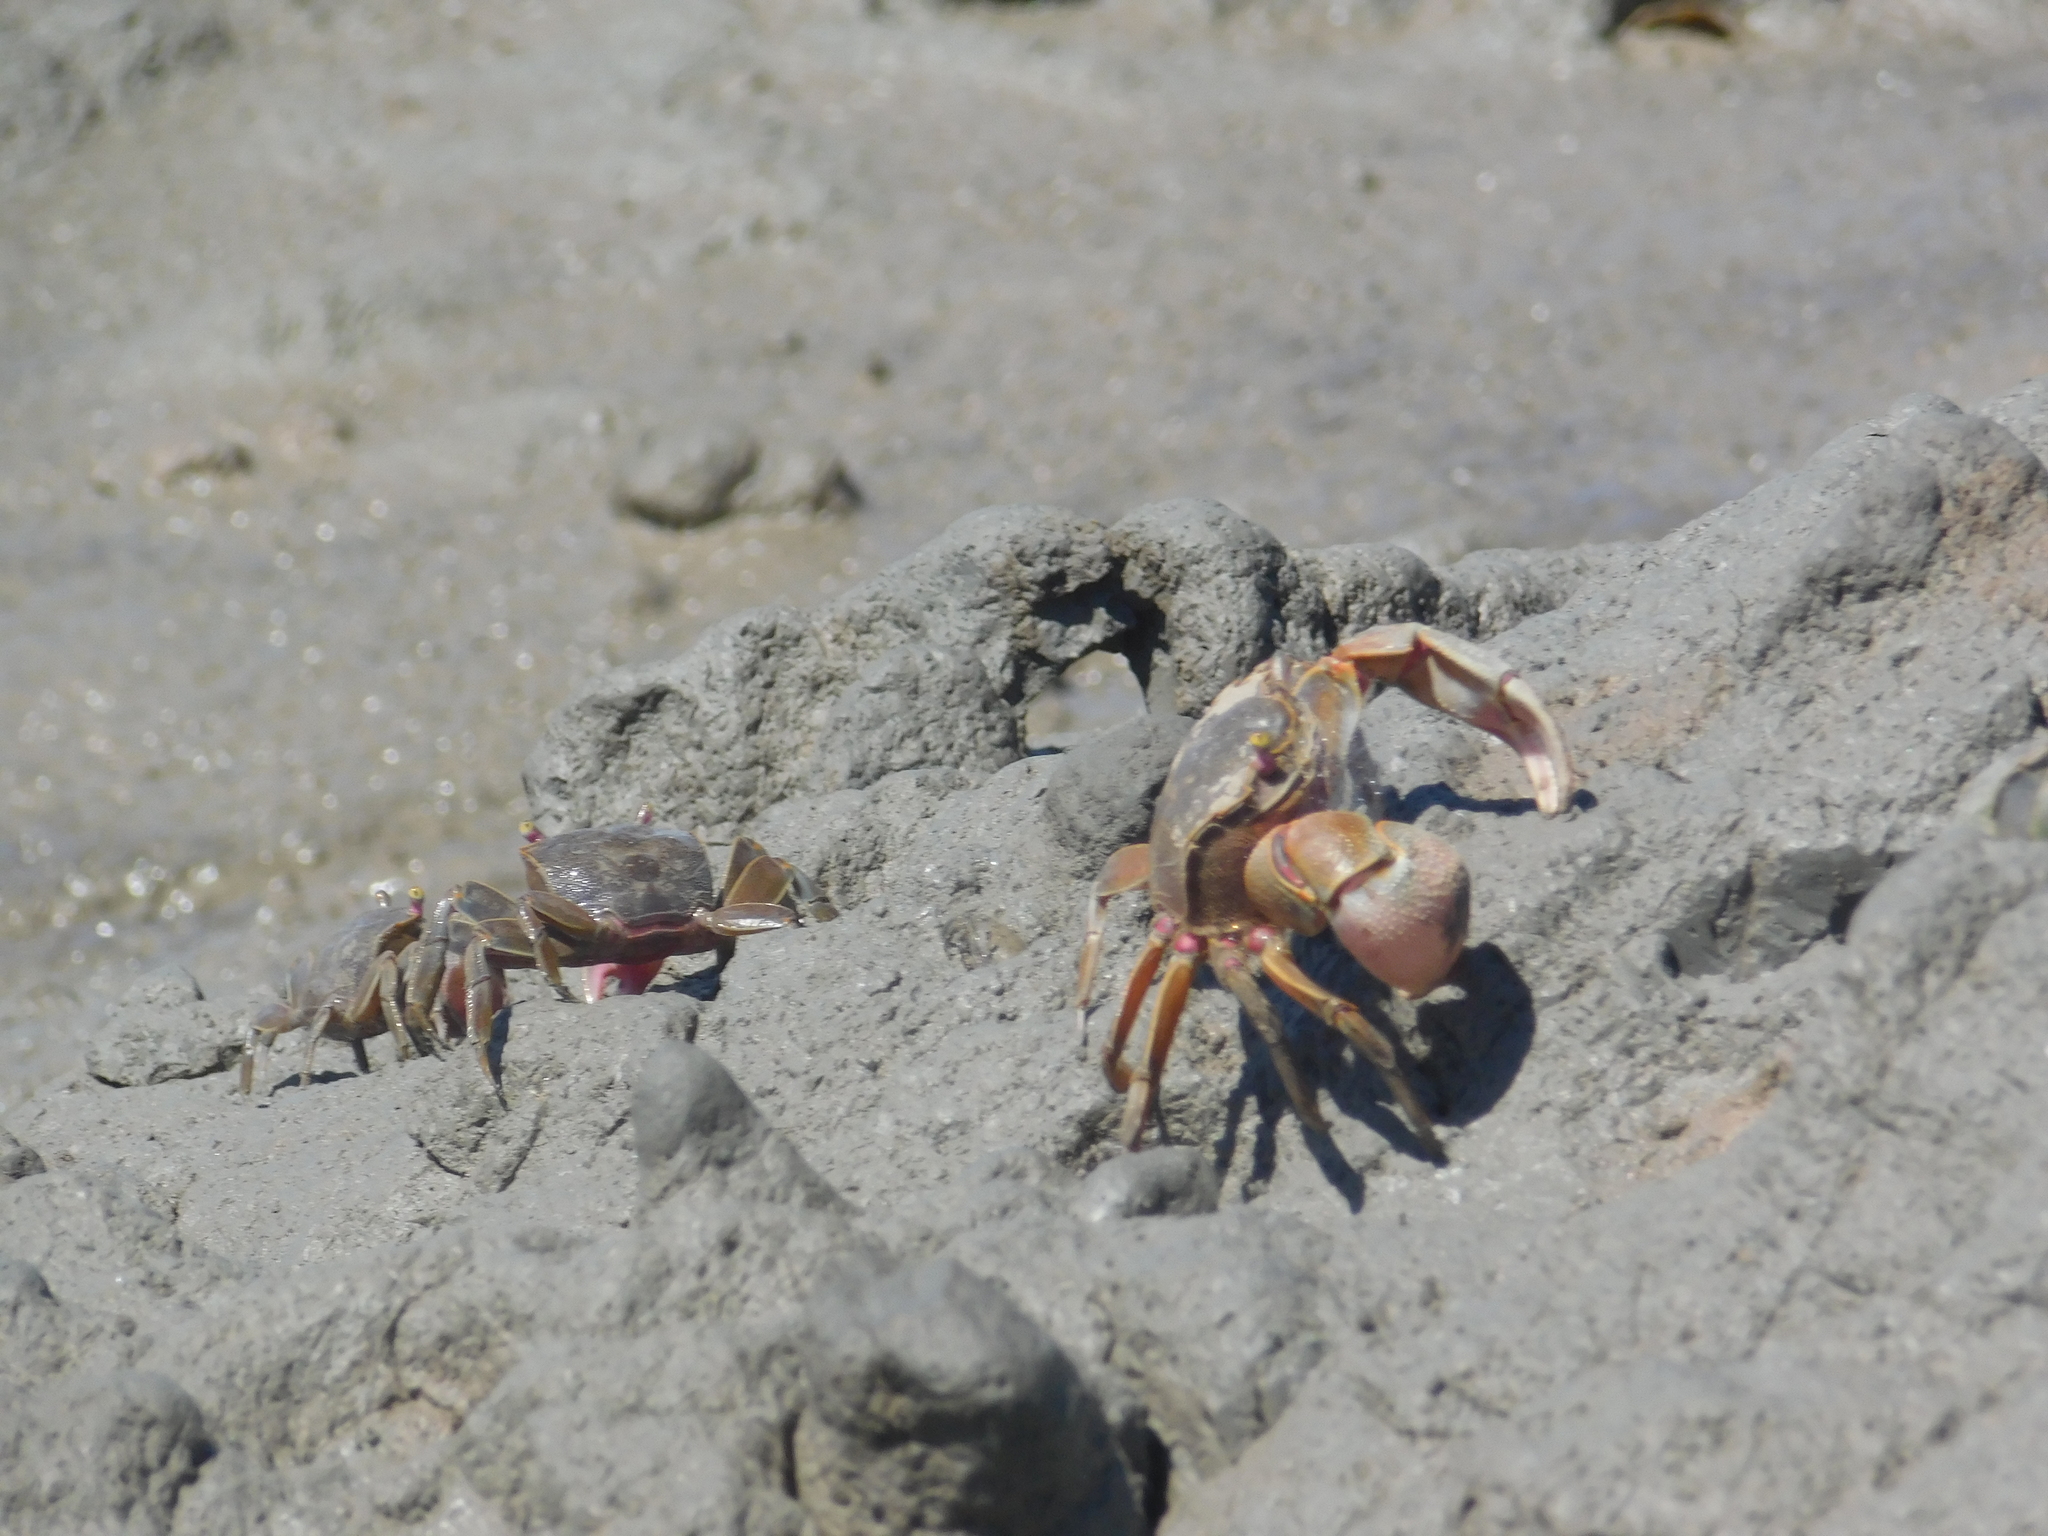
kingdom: Animalia
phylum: Arthropoda
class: Malacostraca
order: Decapoda
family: Varunidae
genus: Neohelice
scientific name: Neohelice granulata
